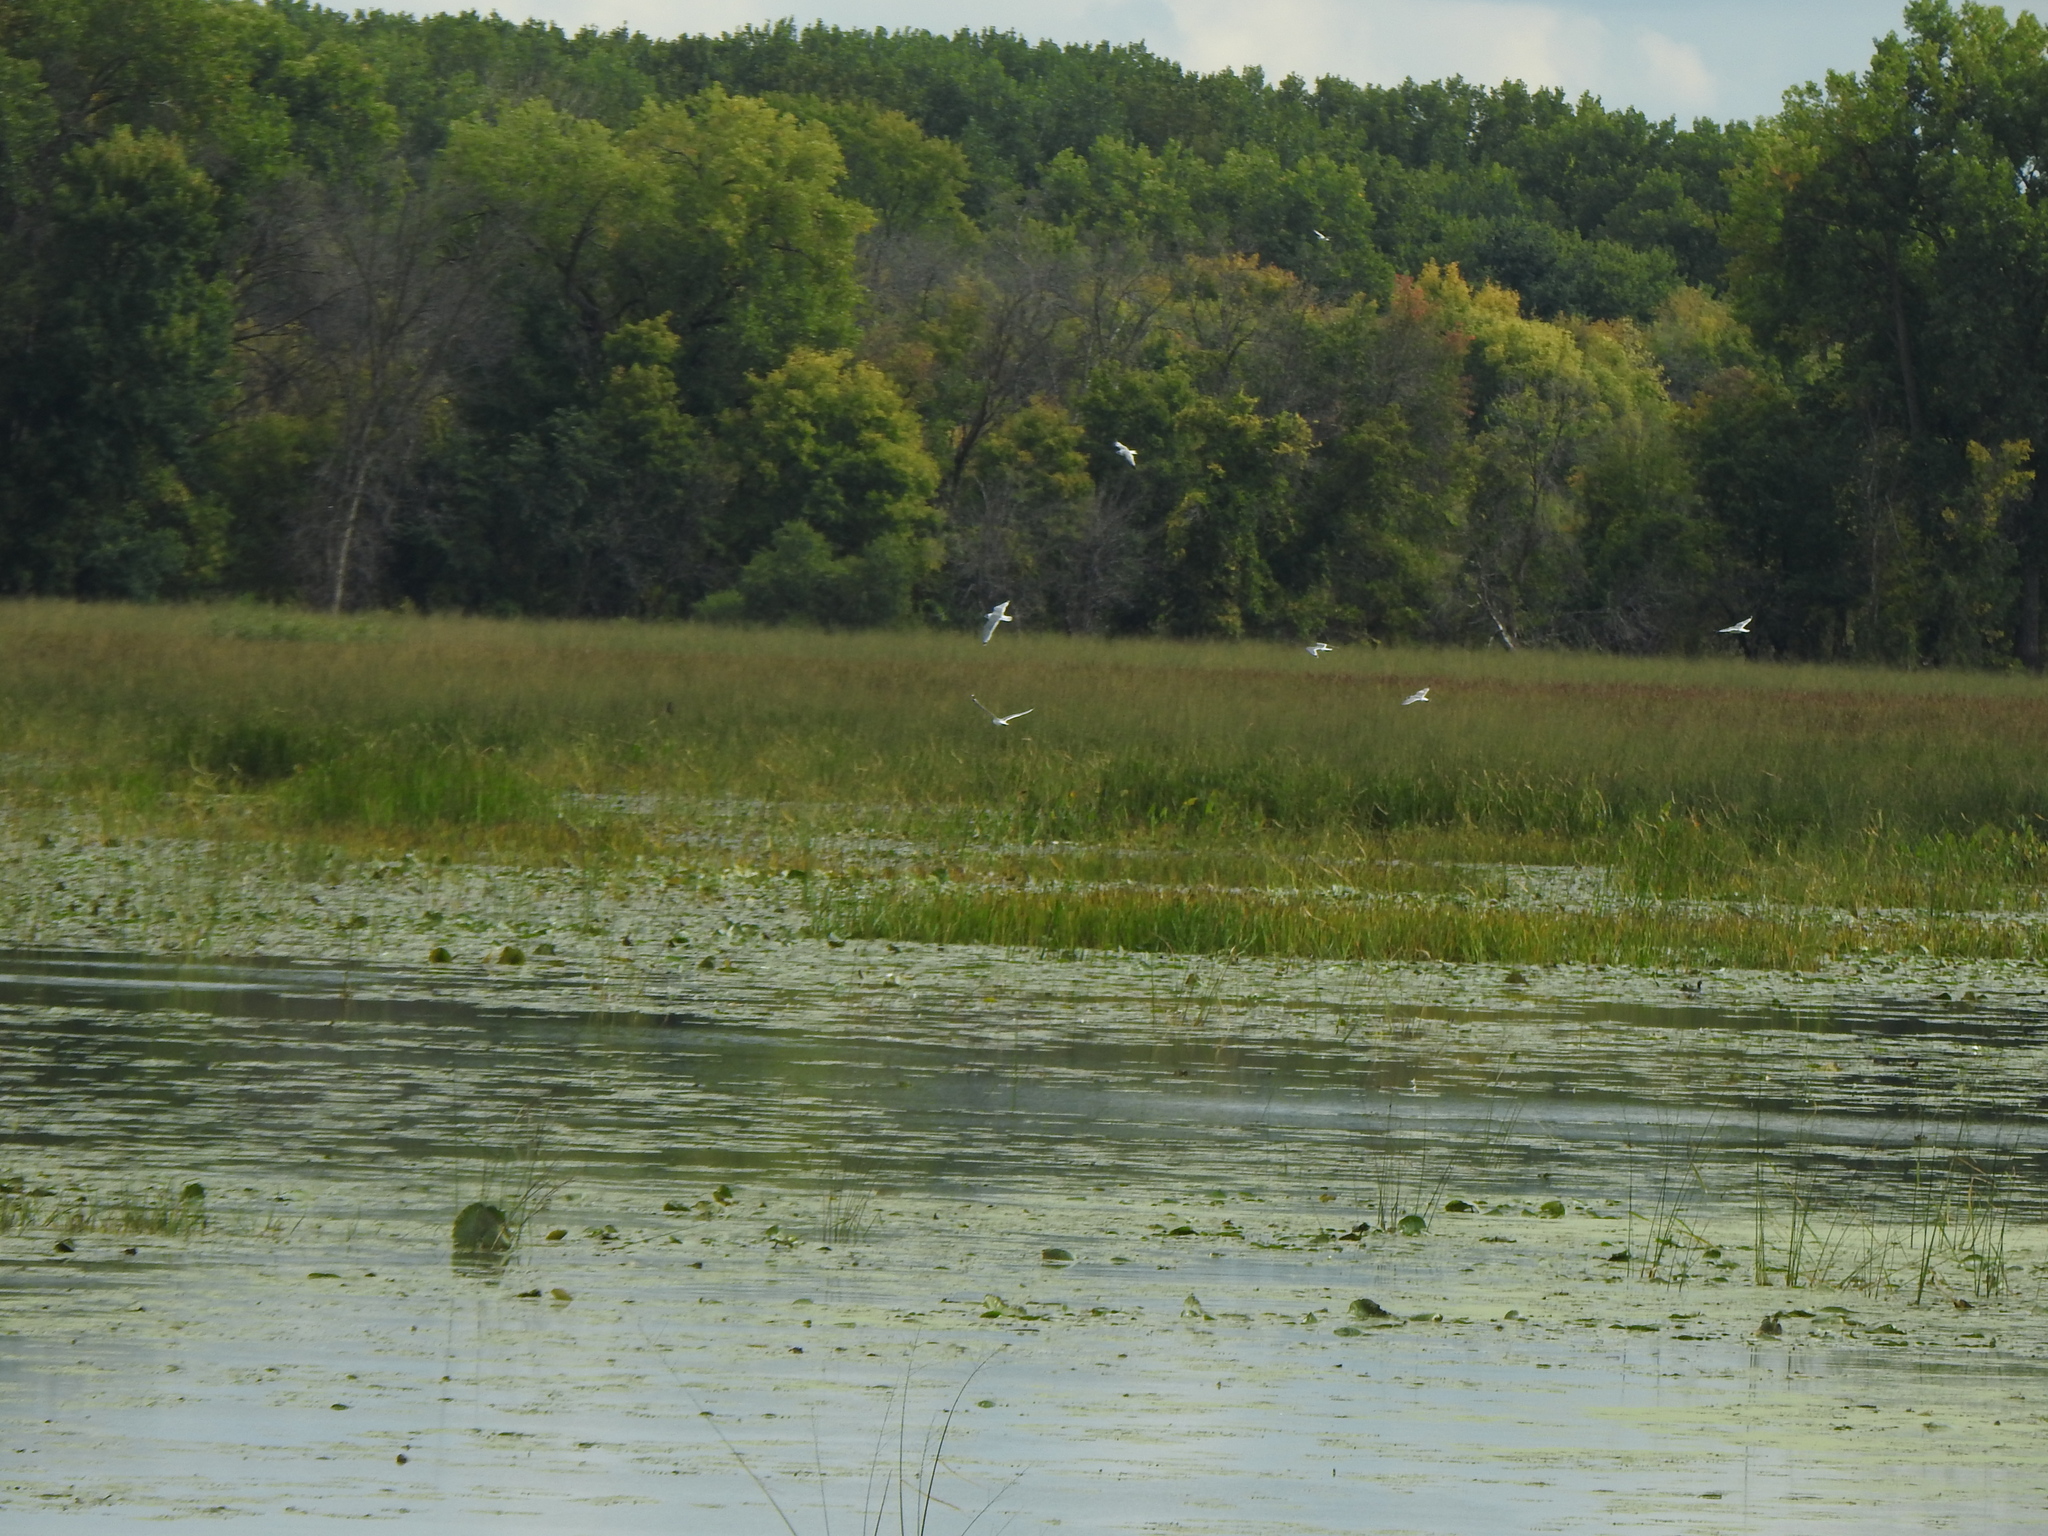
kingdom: Animalia
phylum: Chordata
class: Aves
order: Charadriiformes
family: Laridae
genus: Leucophaeus
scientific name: Leucophaeus pipixcan
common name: Franklin's gull
